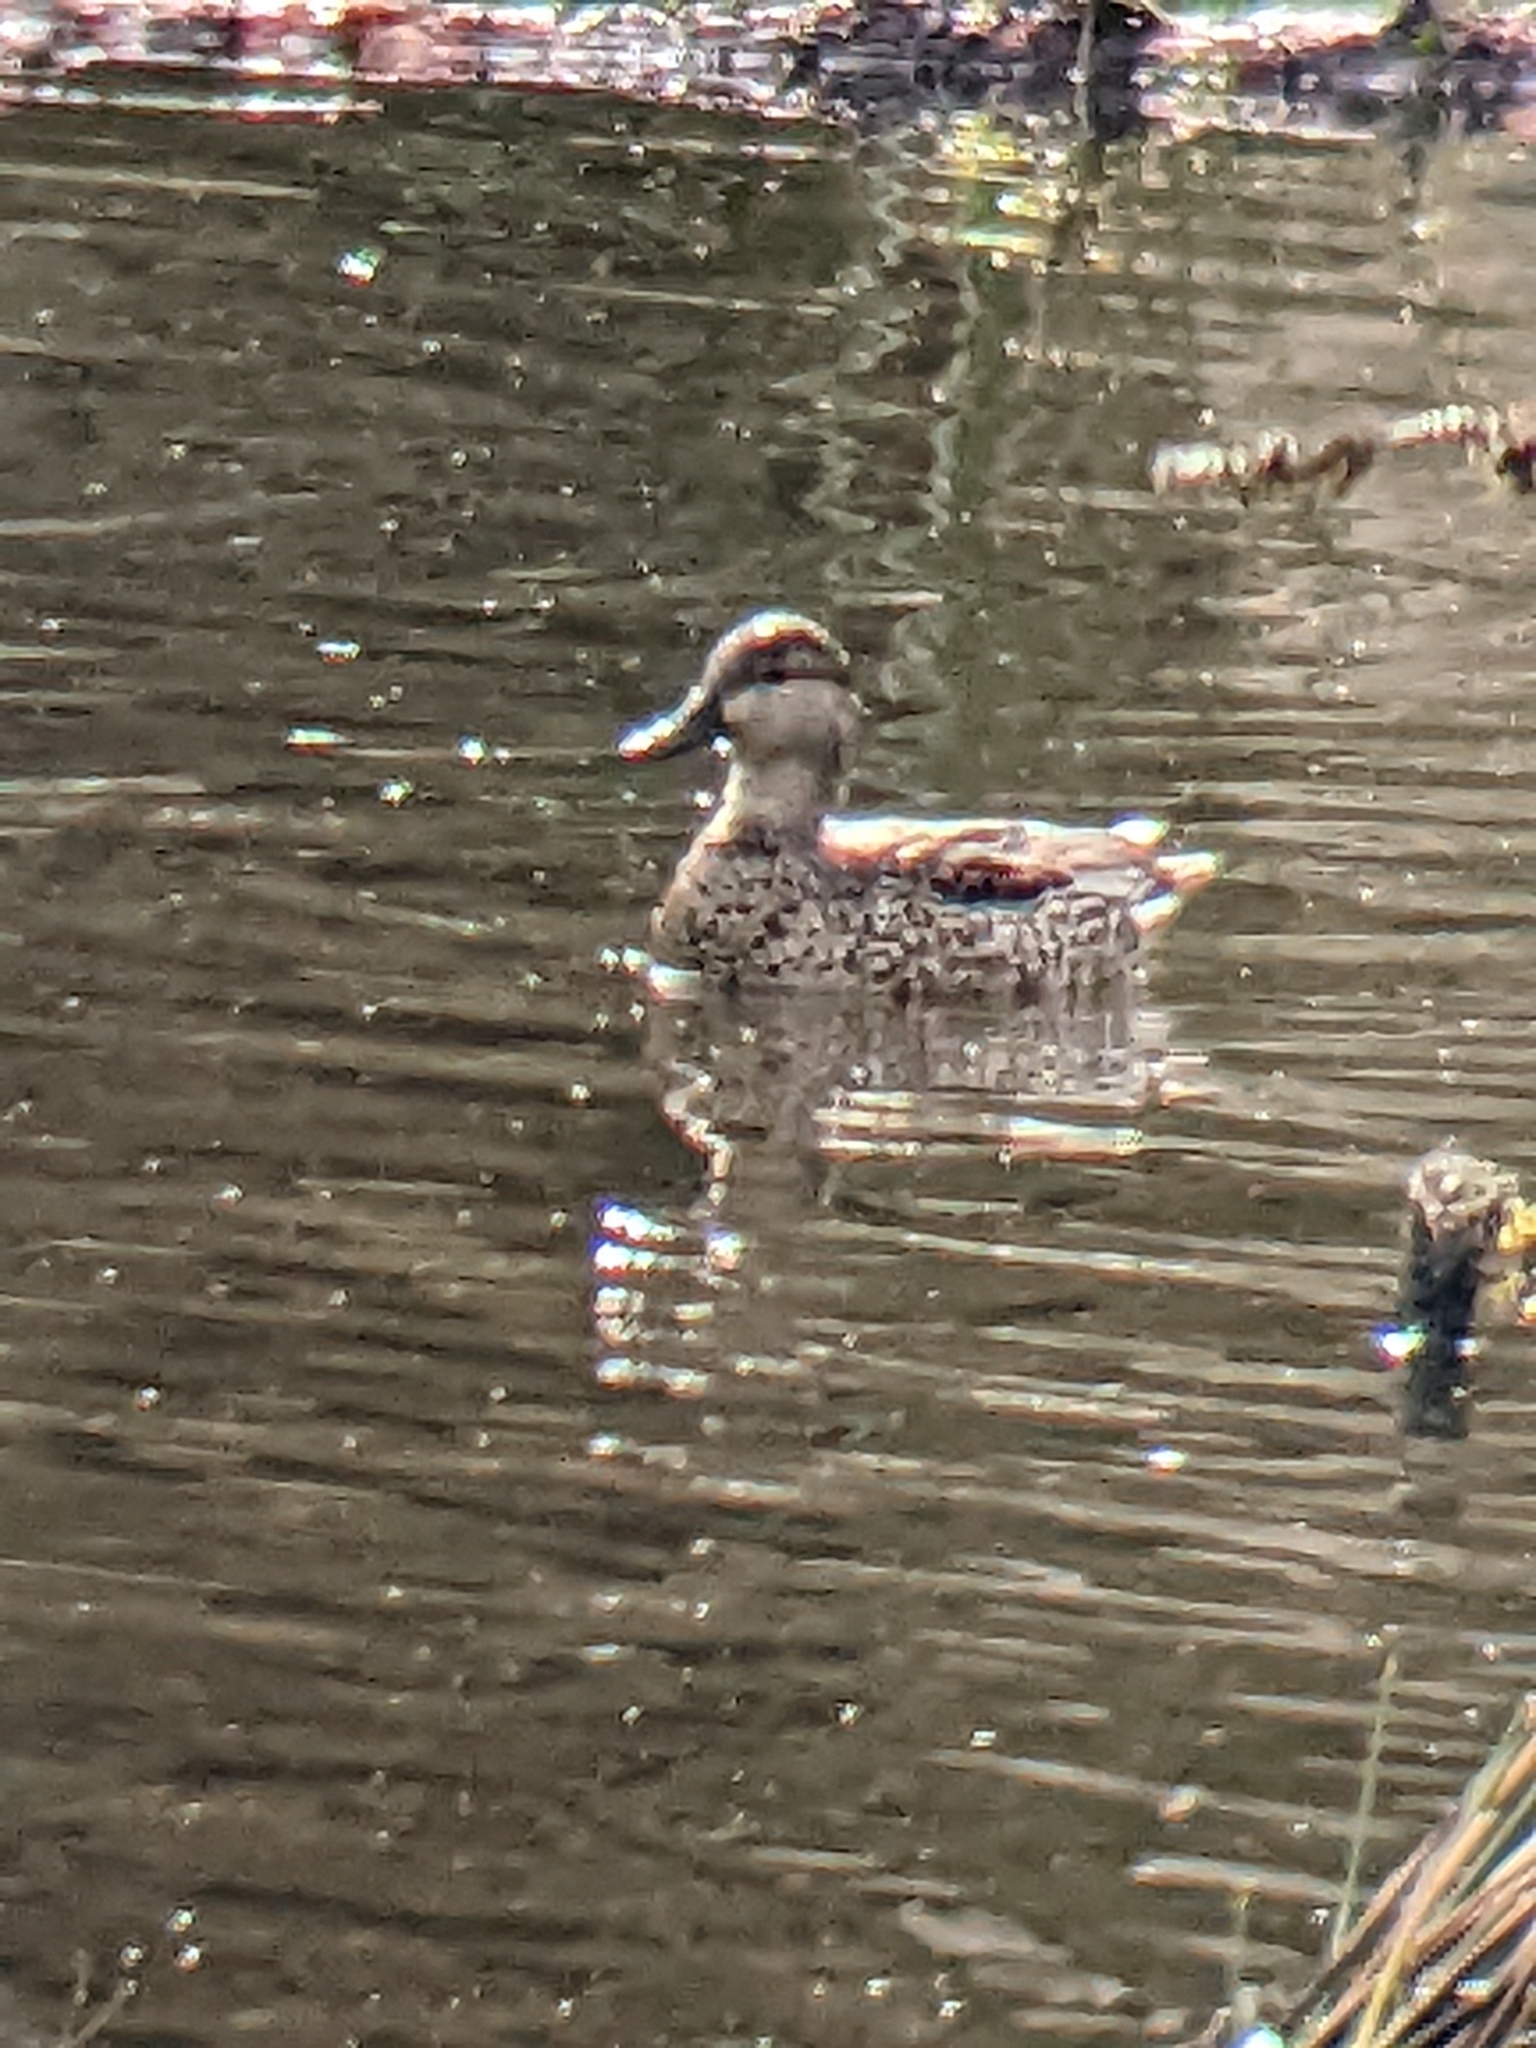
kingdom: Animalia
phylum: Chordata
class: Aves
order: Anseriformes
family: Anatidae
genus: Spatula
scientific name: Spatula discors
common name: Blue-winged teal
